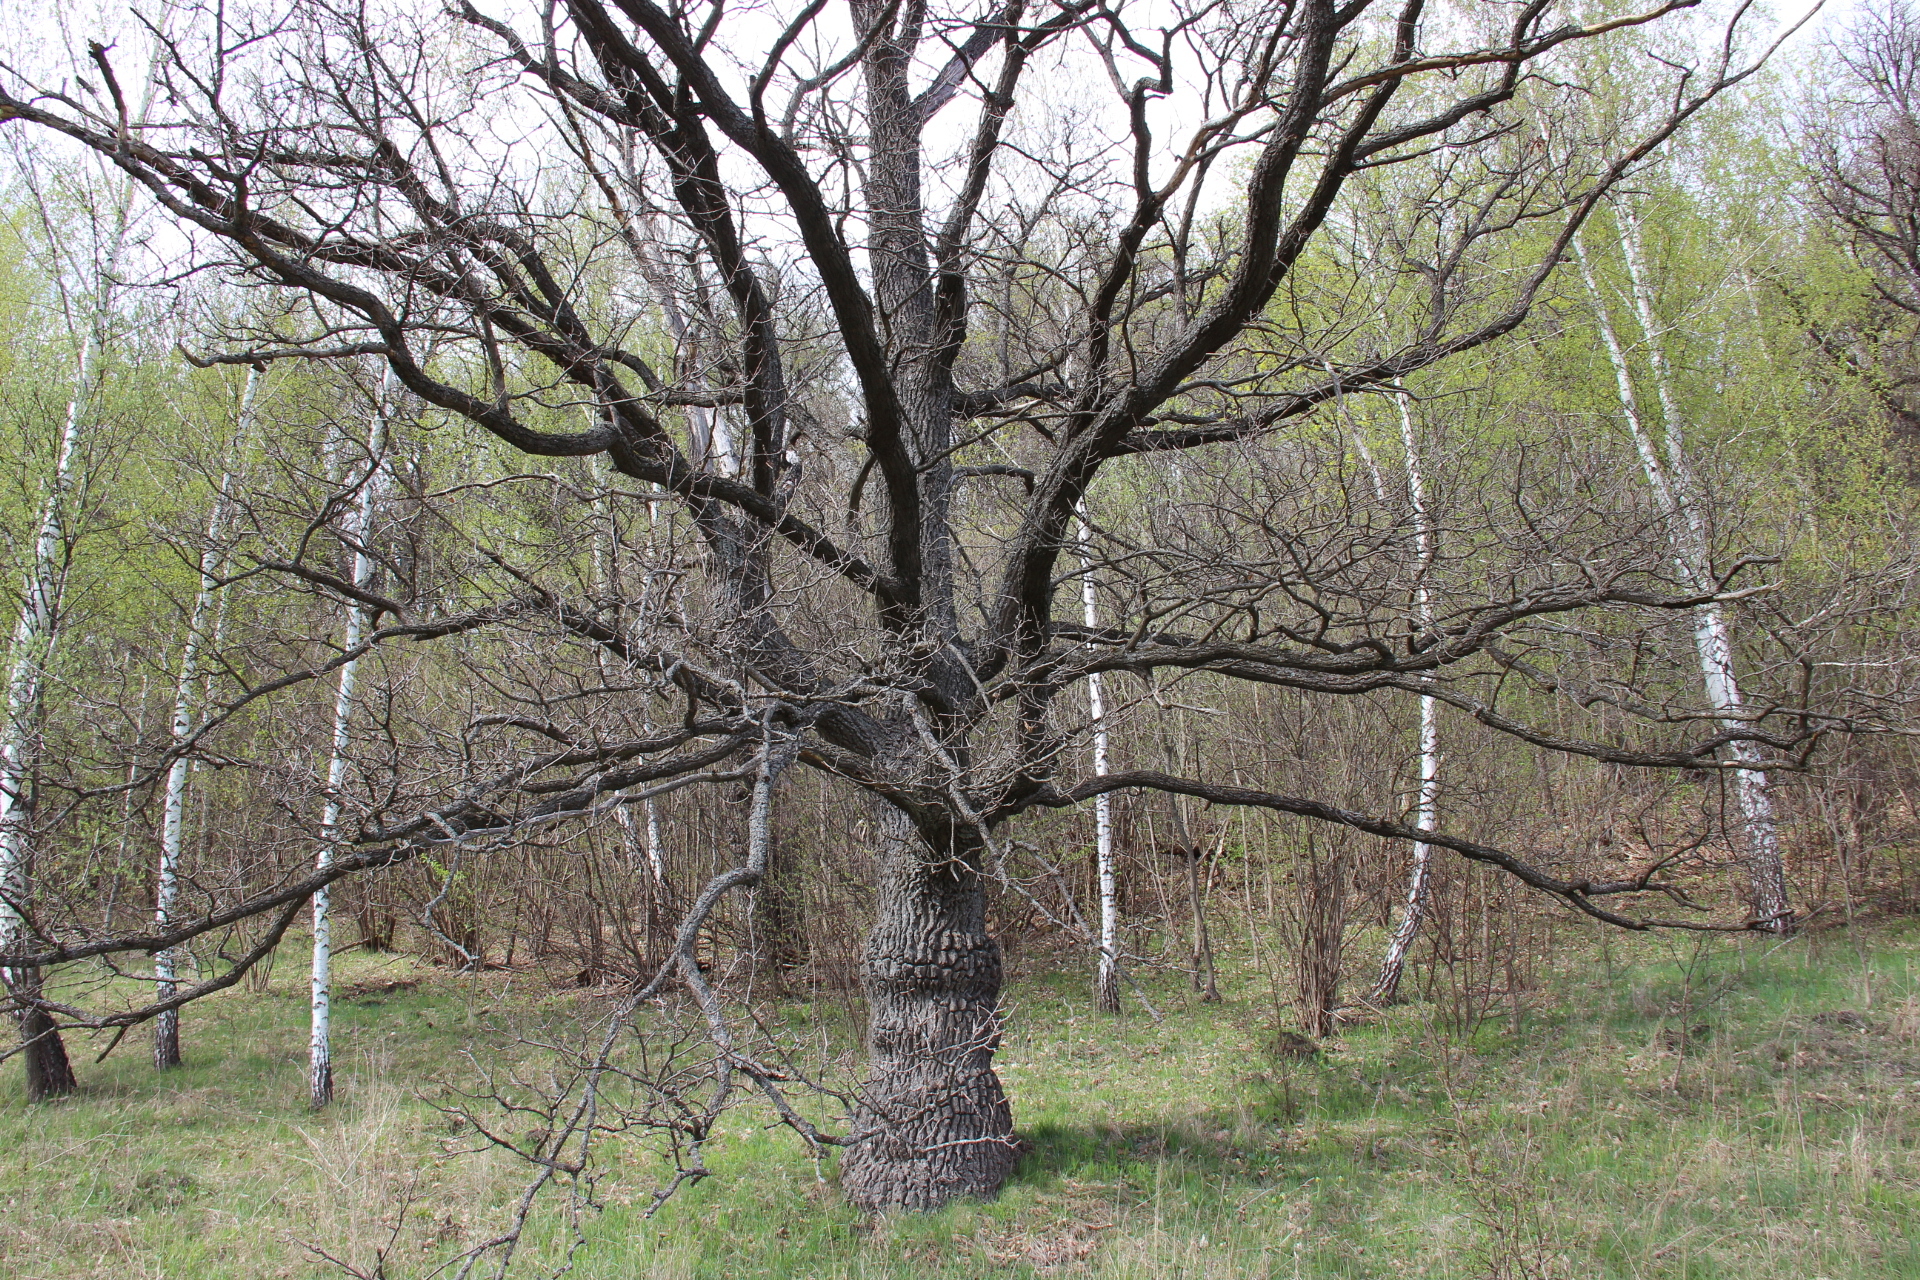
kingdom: Plantae
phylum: Tracheophyta
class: Magnoliopsida
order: Fagales
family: Fagaceae
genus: Quercus
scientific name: Quercus robur
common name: Pedunculate oak
